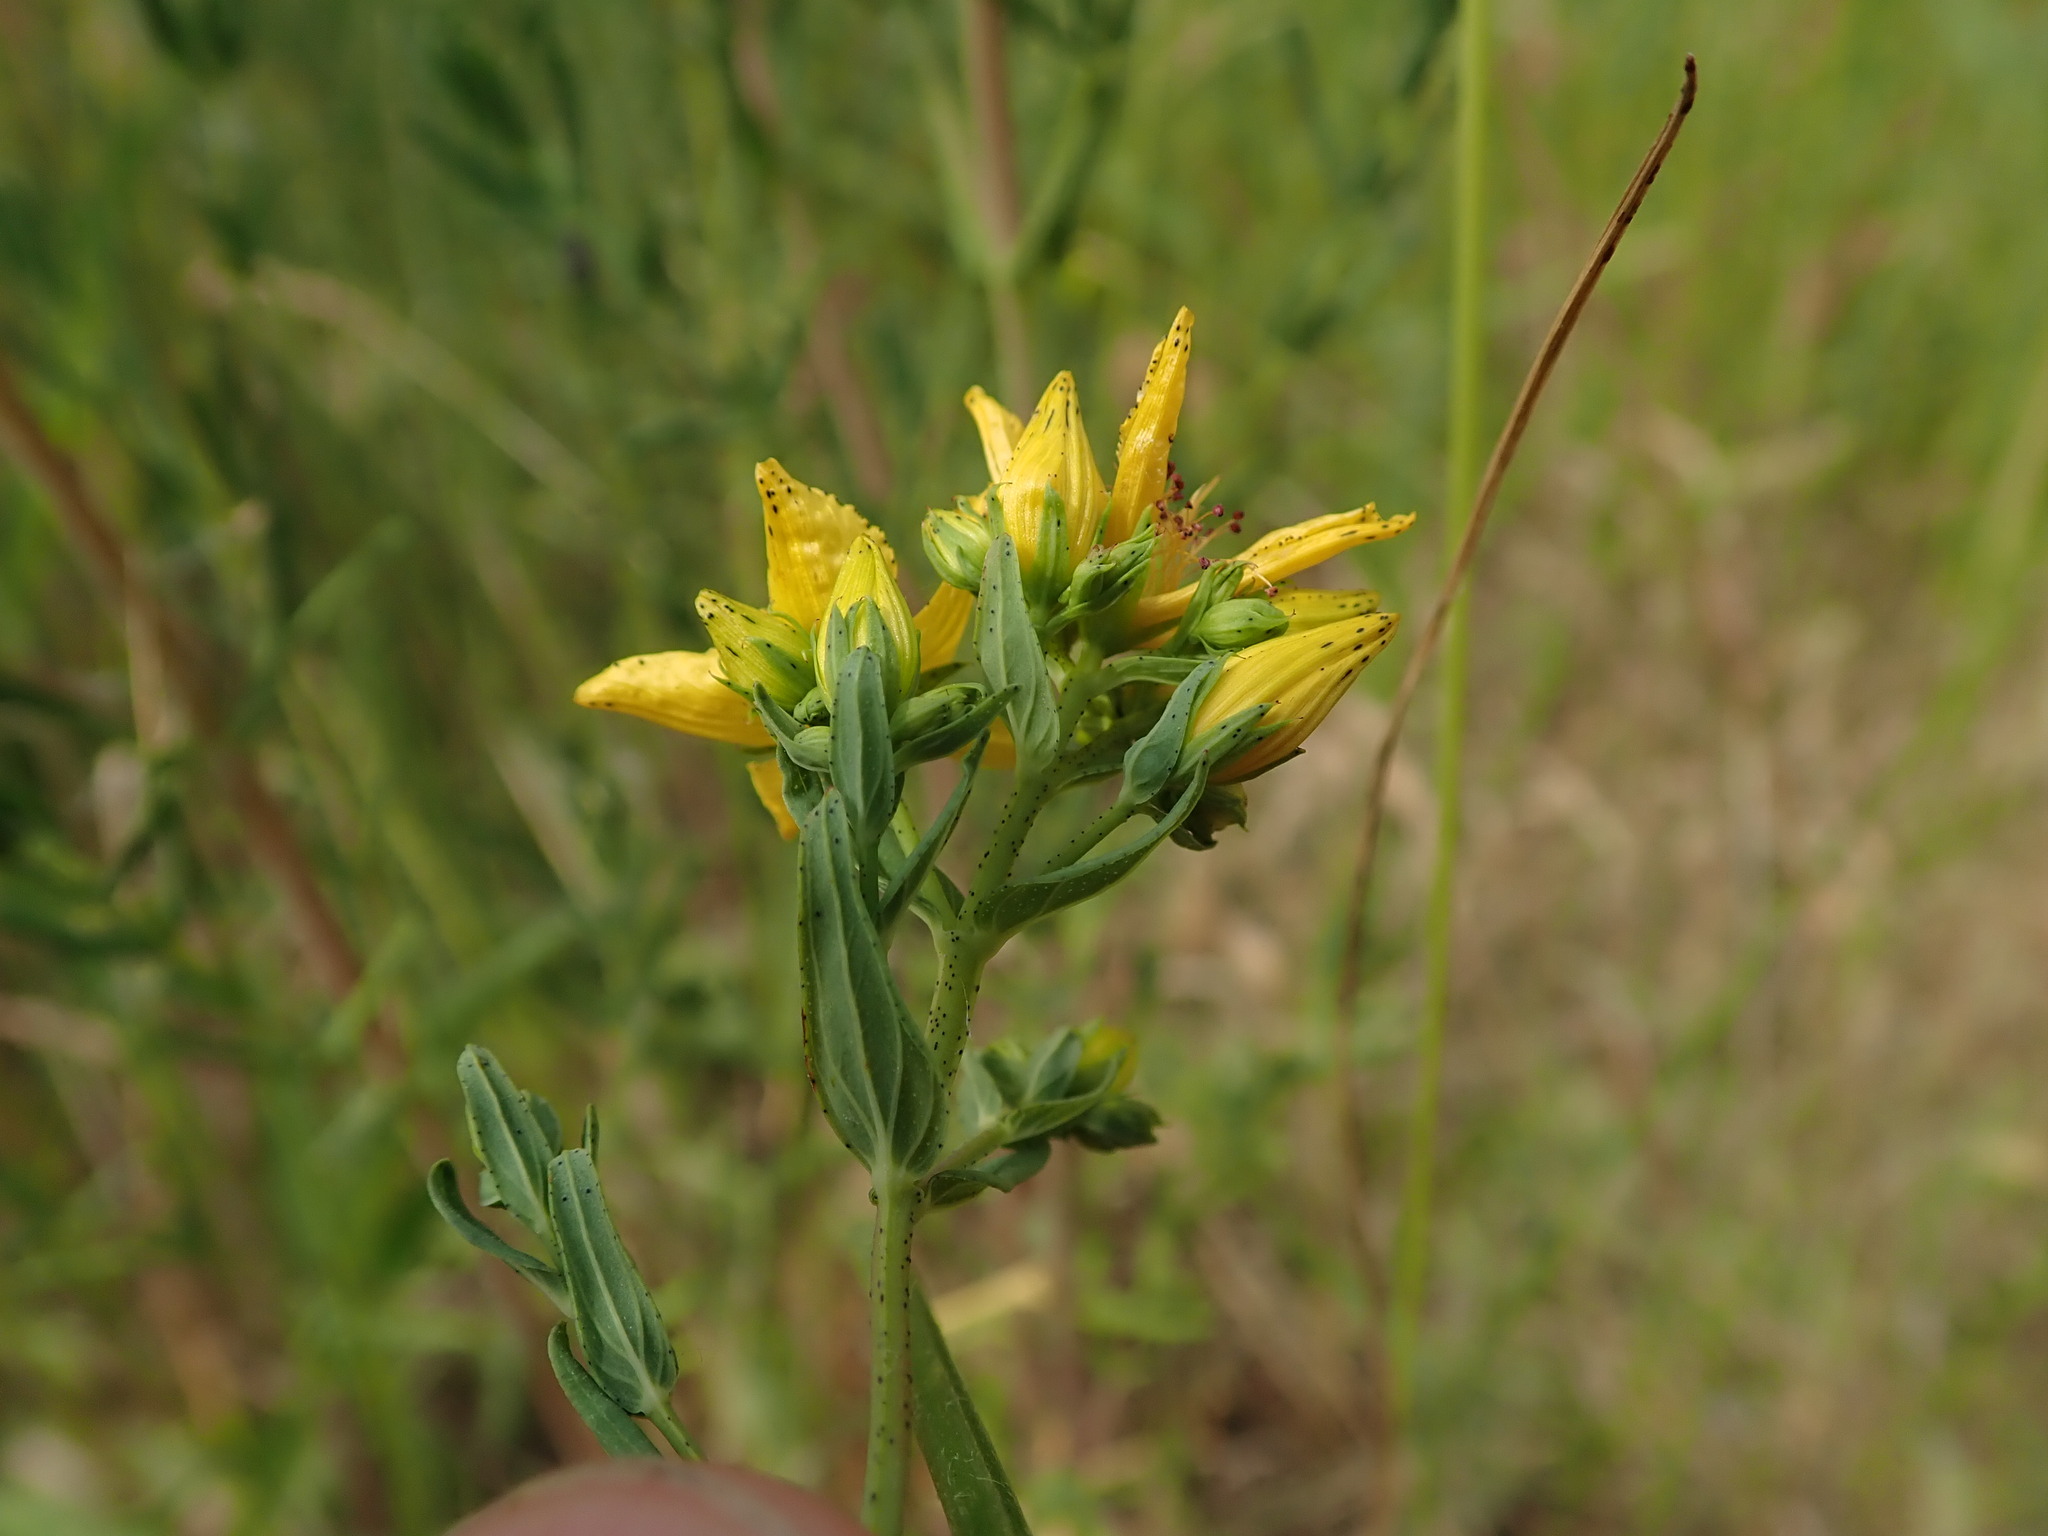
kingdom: Plantae
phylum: Tracheophyta
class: Magnoliopsida
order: Malpighiales
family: Hypericaceae
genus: Hypericum
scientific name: Hypericum perforatum
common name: Common st. johnswort
